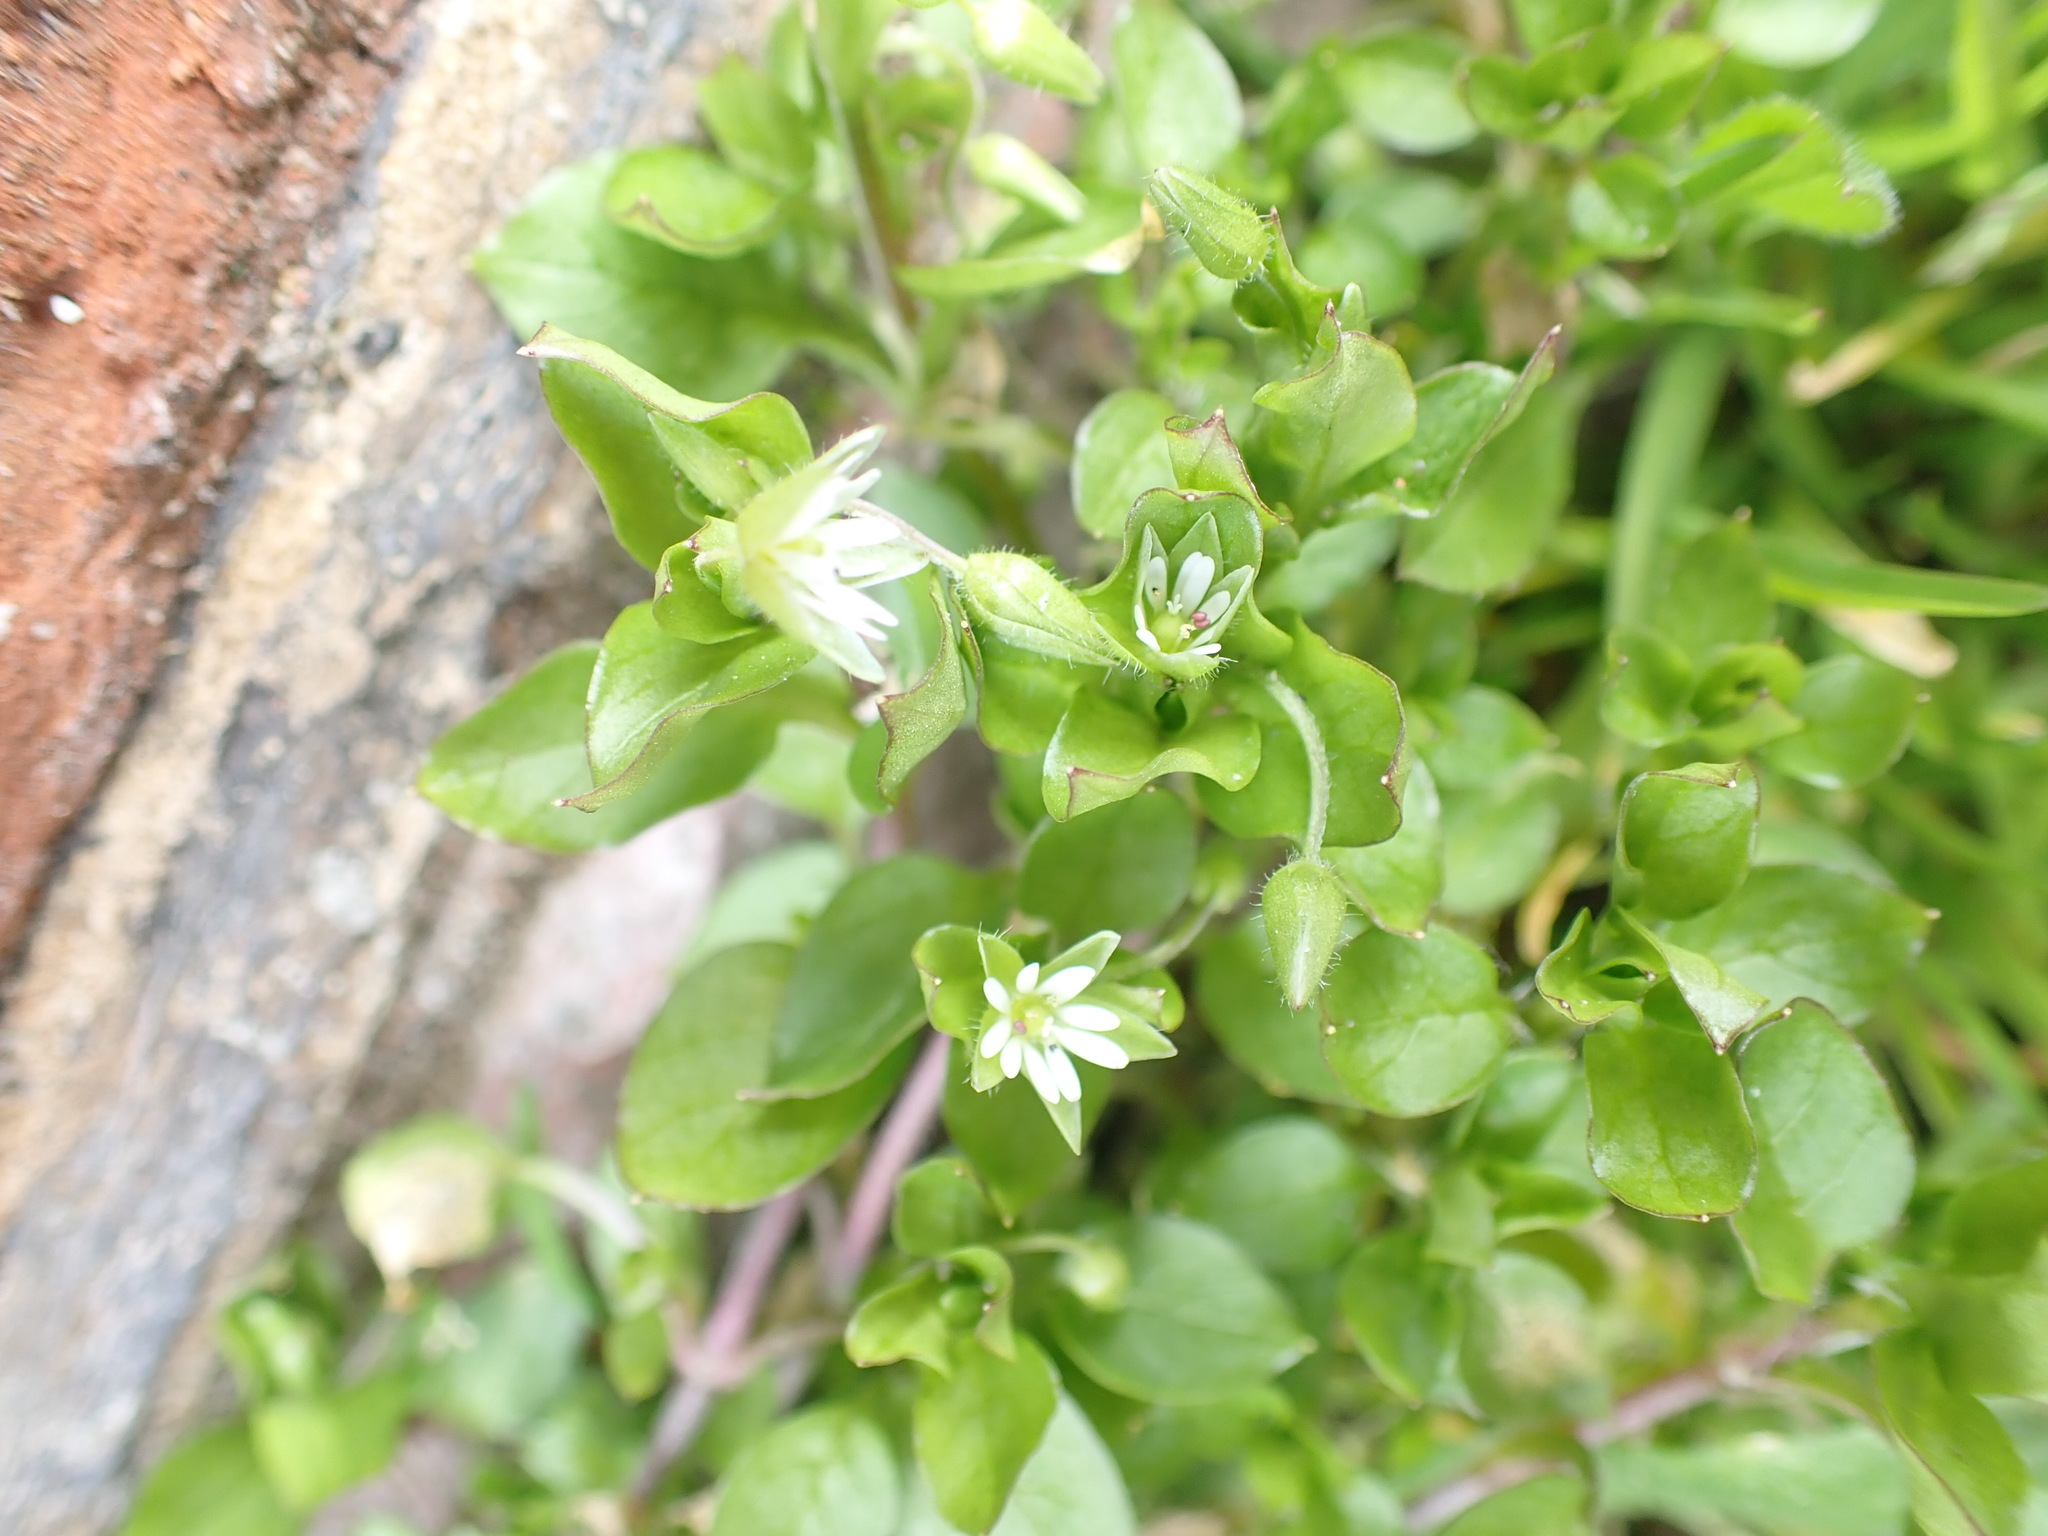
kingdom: Plantae
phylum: Tracheophyta
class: Magnoliopsida
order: Caryophyllales
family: Caryophyllaceae
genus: Stellaria
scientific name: Stellaria media
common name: Common chickweed
